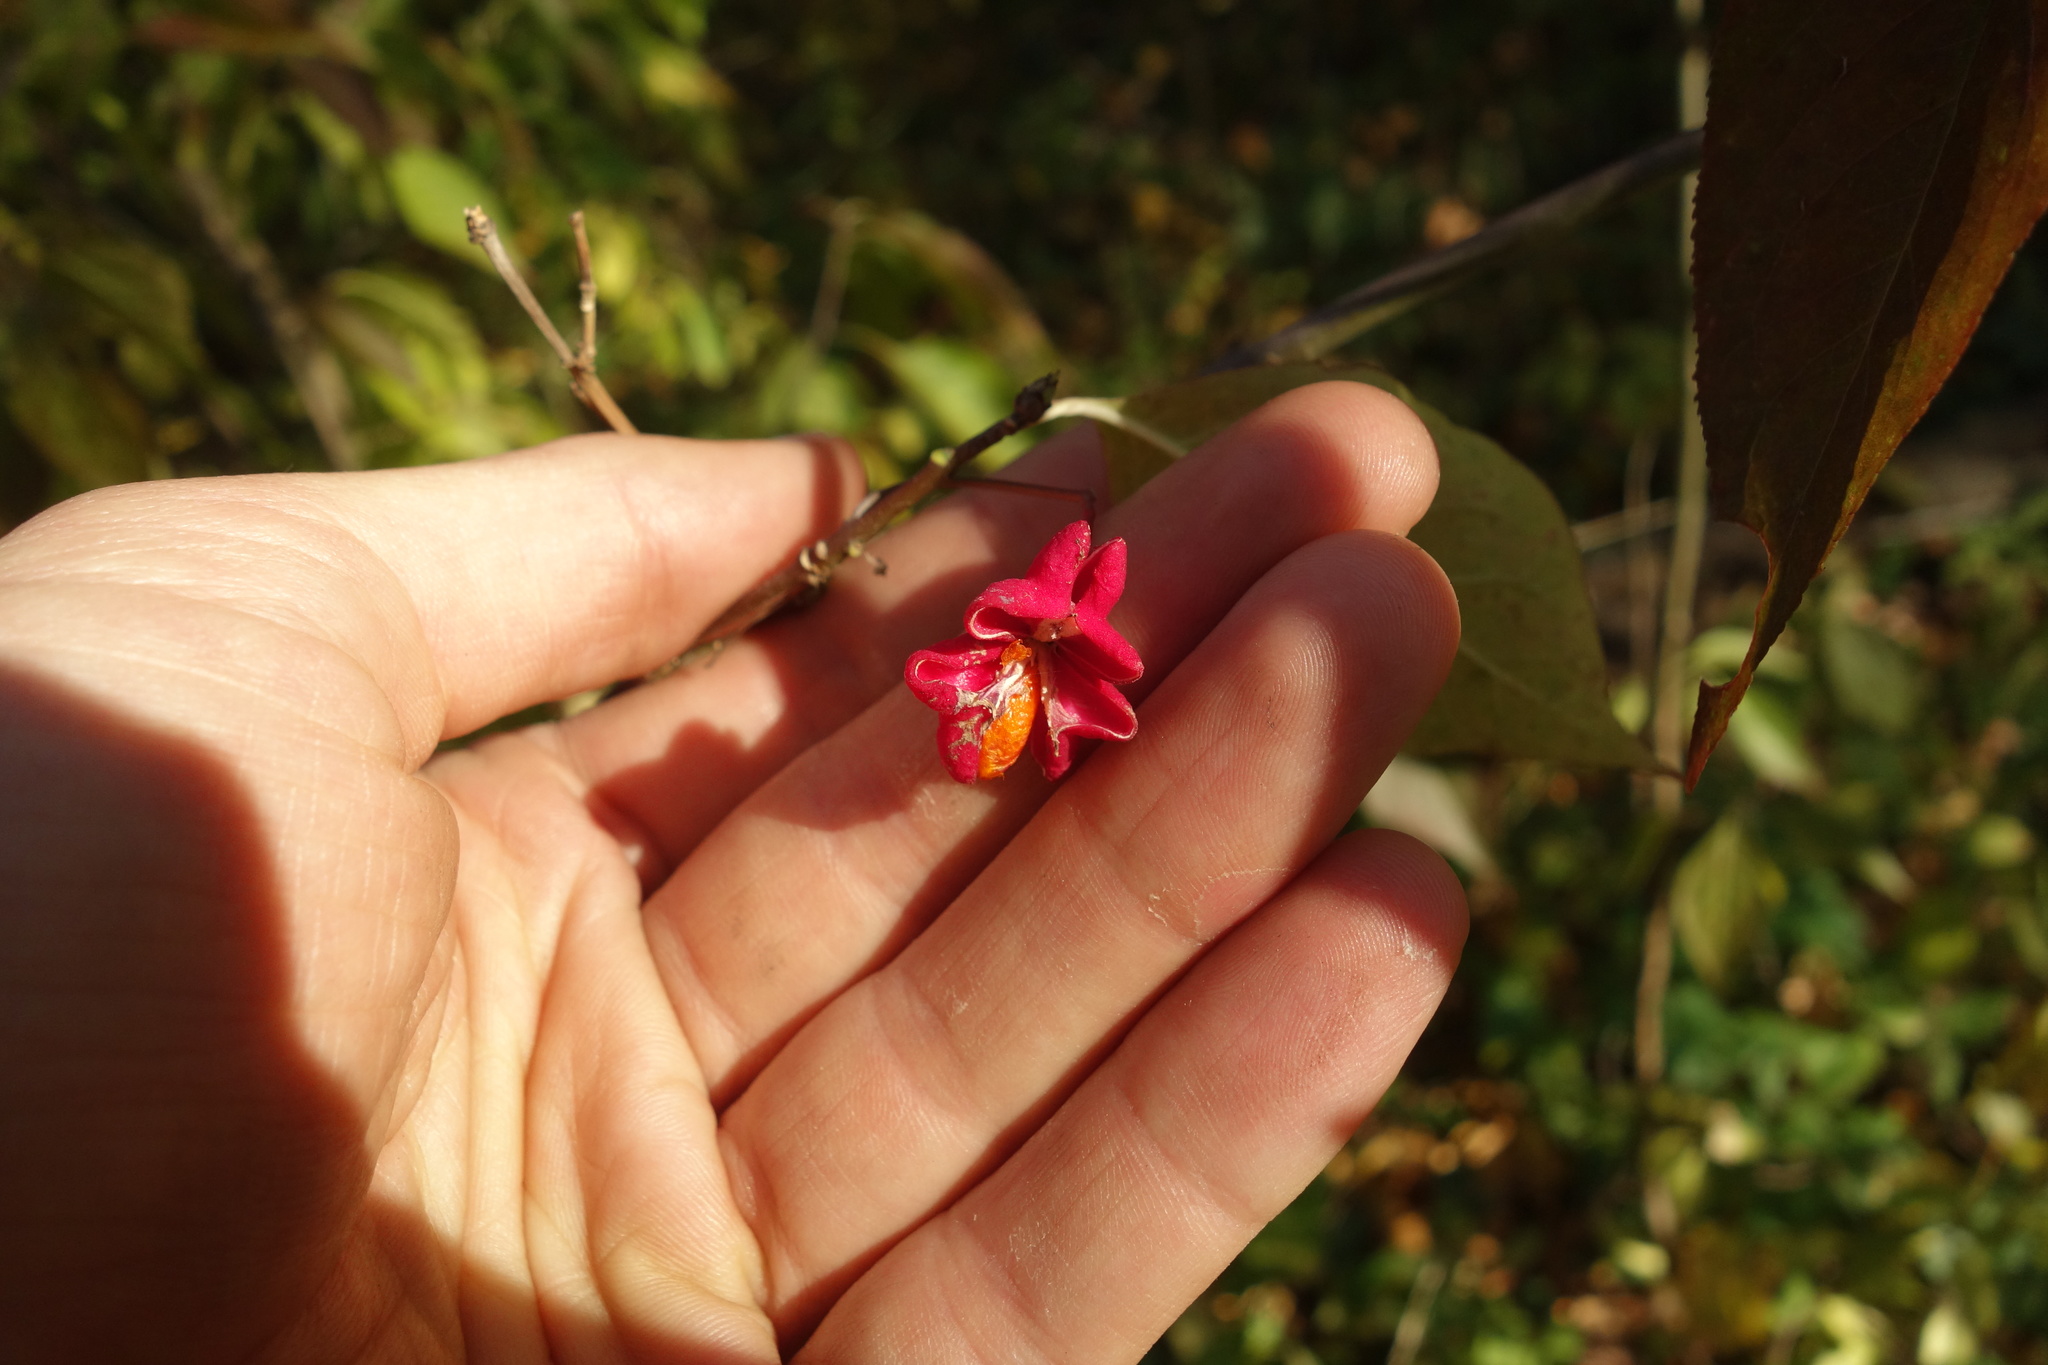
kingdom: Plantae
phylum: Tracheophyta
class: Magnoliopsida
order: Celastrales
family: Celastraceae
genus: Euonymus
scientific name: Euonymus europaeus
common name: Spindle
